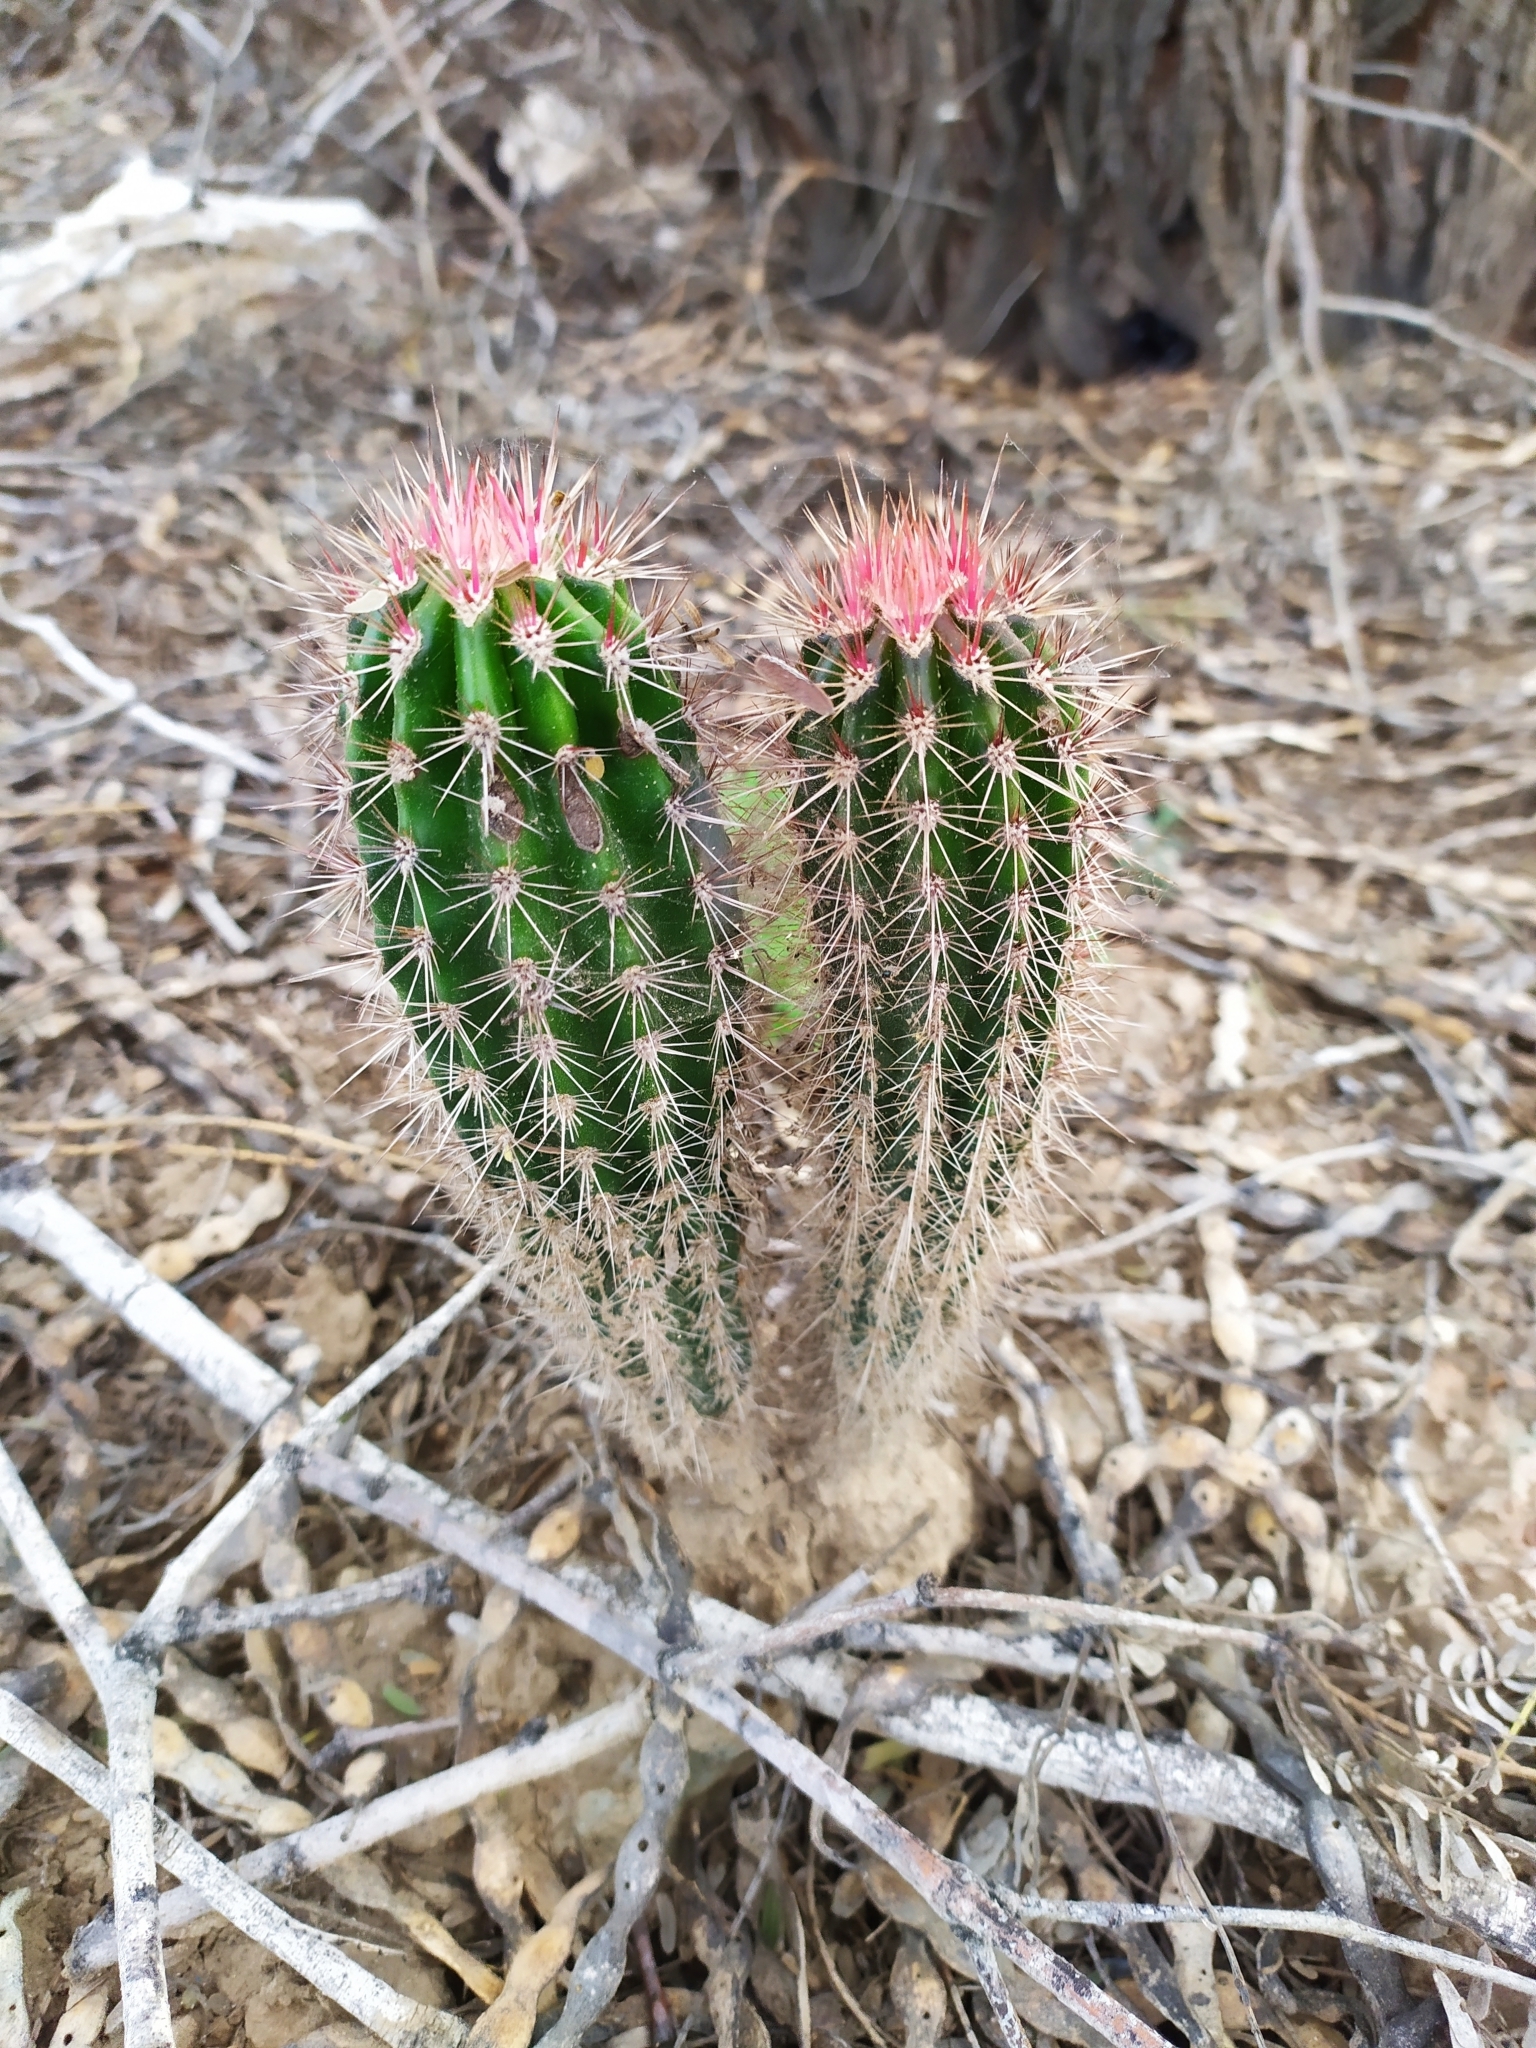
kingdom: Plantae
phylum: Tracheophyta
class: Magnoliopsida
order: Caryophyllales
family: Cactaceae
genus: Pachycereus
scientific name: Pachycereus pecten-aboriginum
